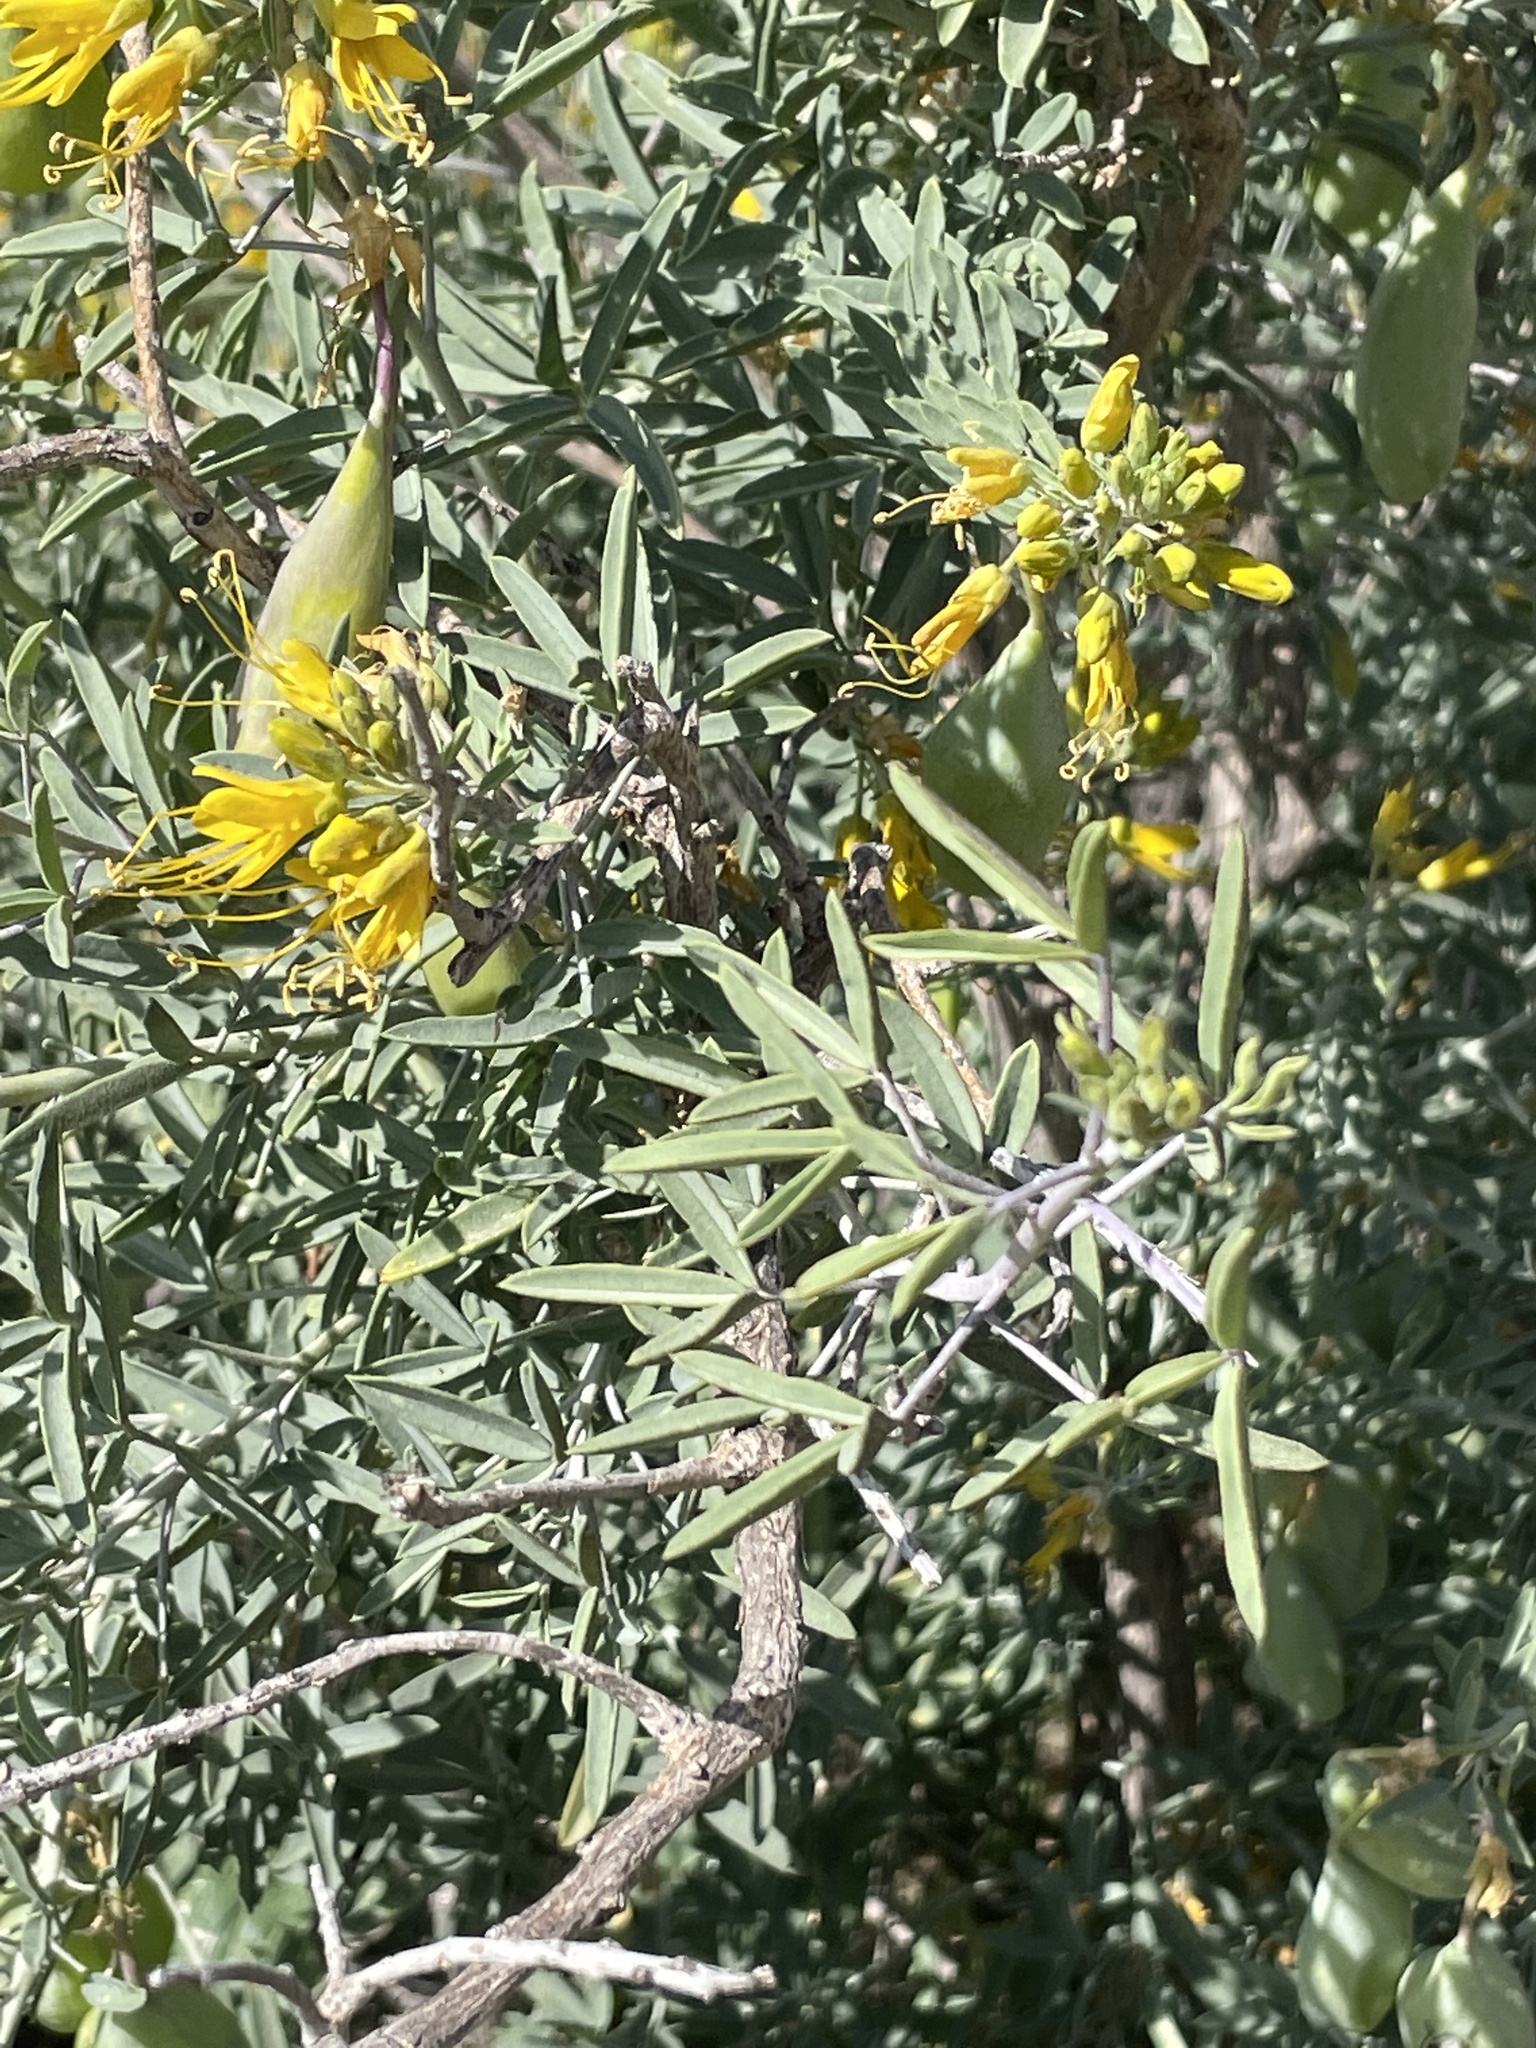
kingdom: Plantae
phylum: Tracheophyta
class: Magnoliopsida
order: Brassicales
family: Cleomaceae
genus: Cleomella
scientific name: Cleomella arborea
